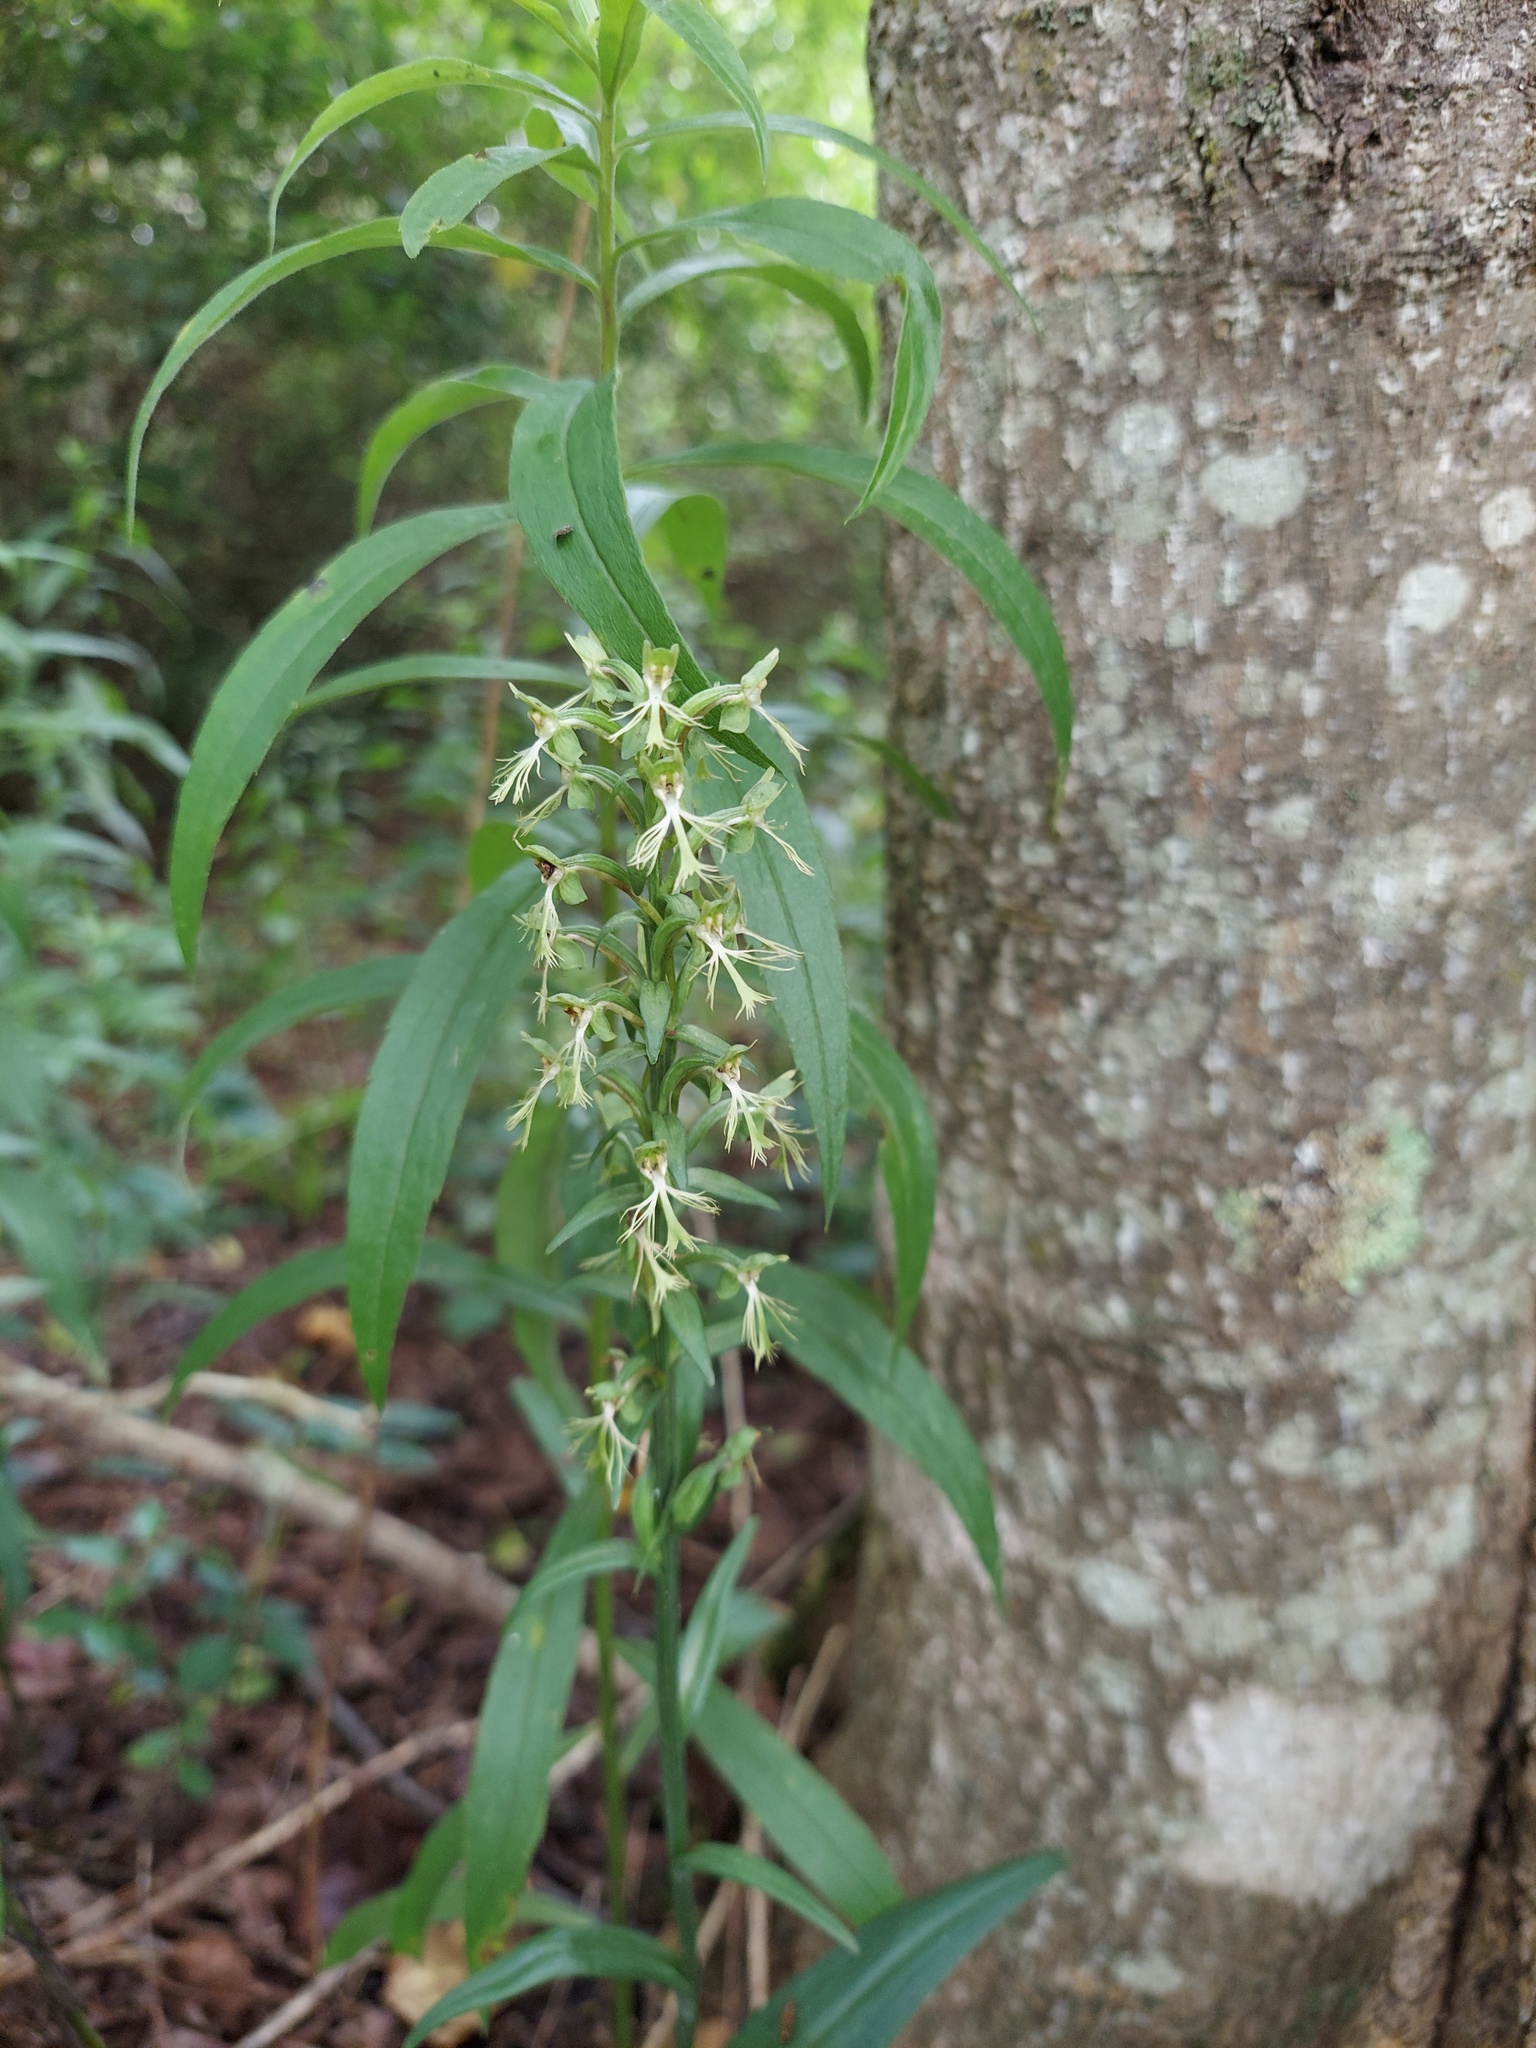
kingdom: Plantae
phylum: Tracheophyta
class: Liliopsida
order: Asparagales
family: Orchidaceae
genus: Platanthera
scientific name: Platanthera lacera
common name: Green fringed orchid
